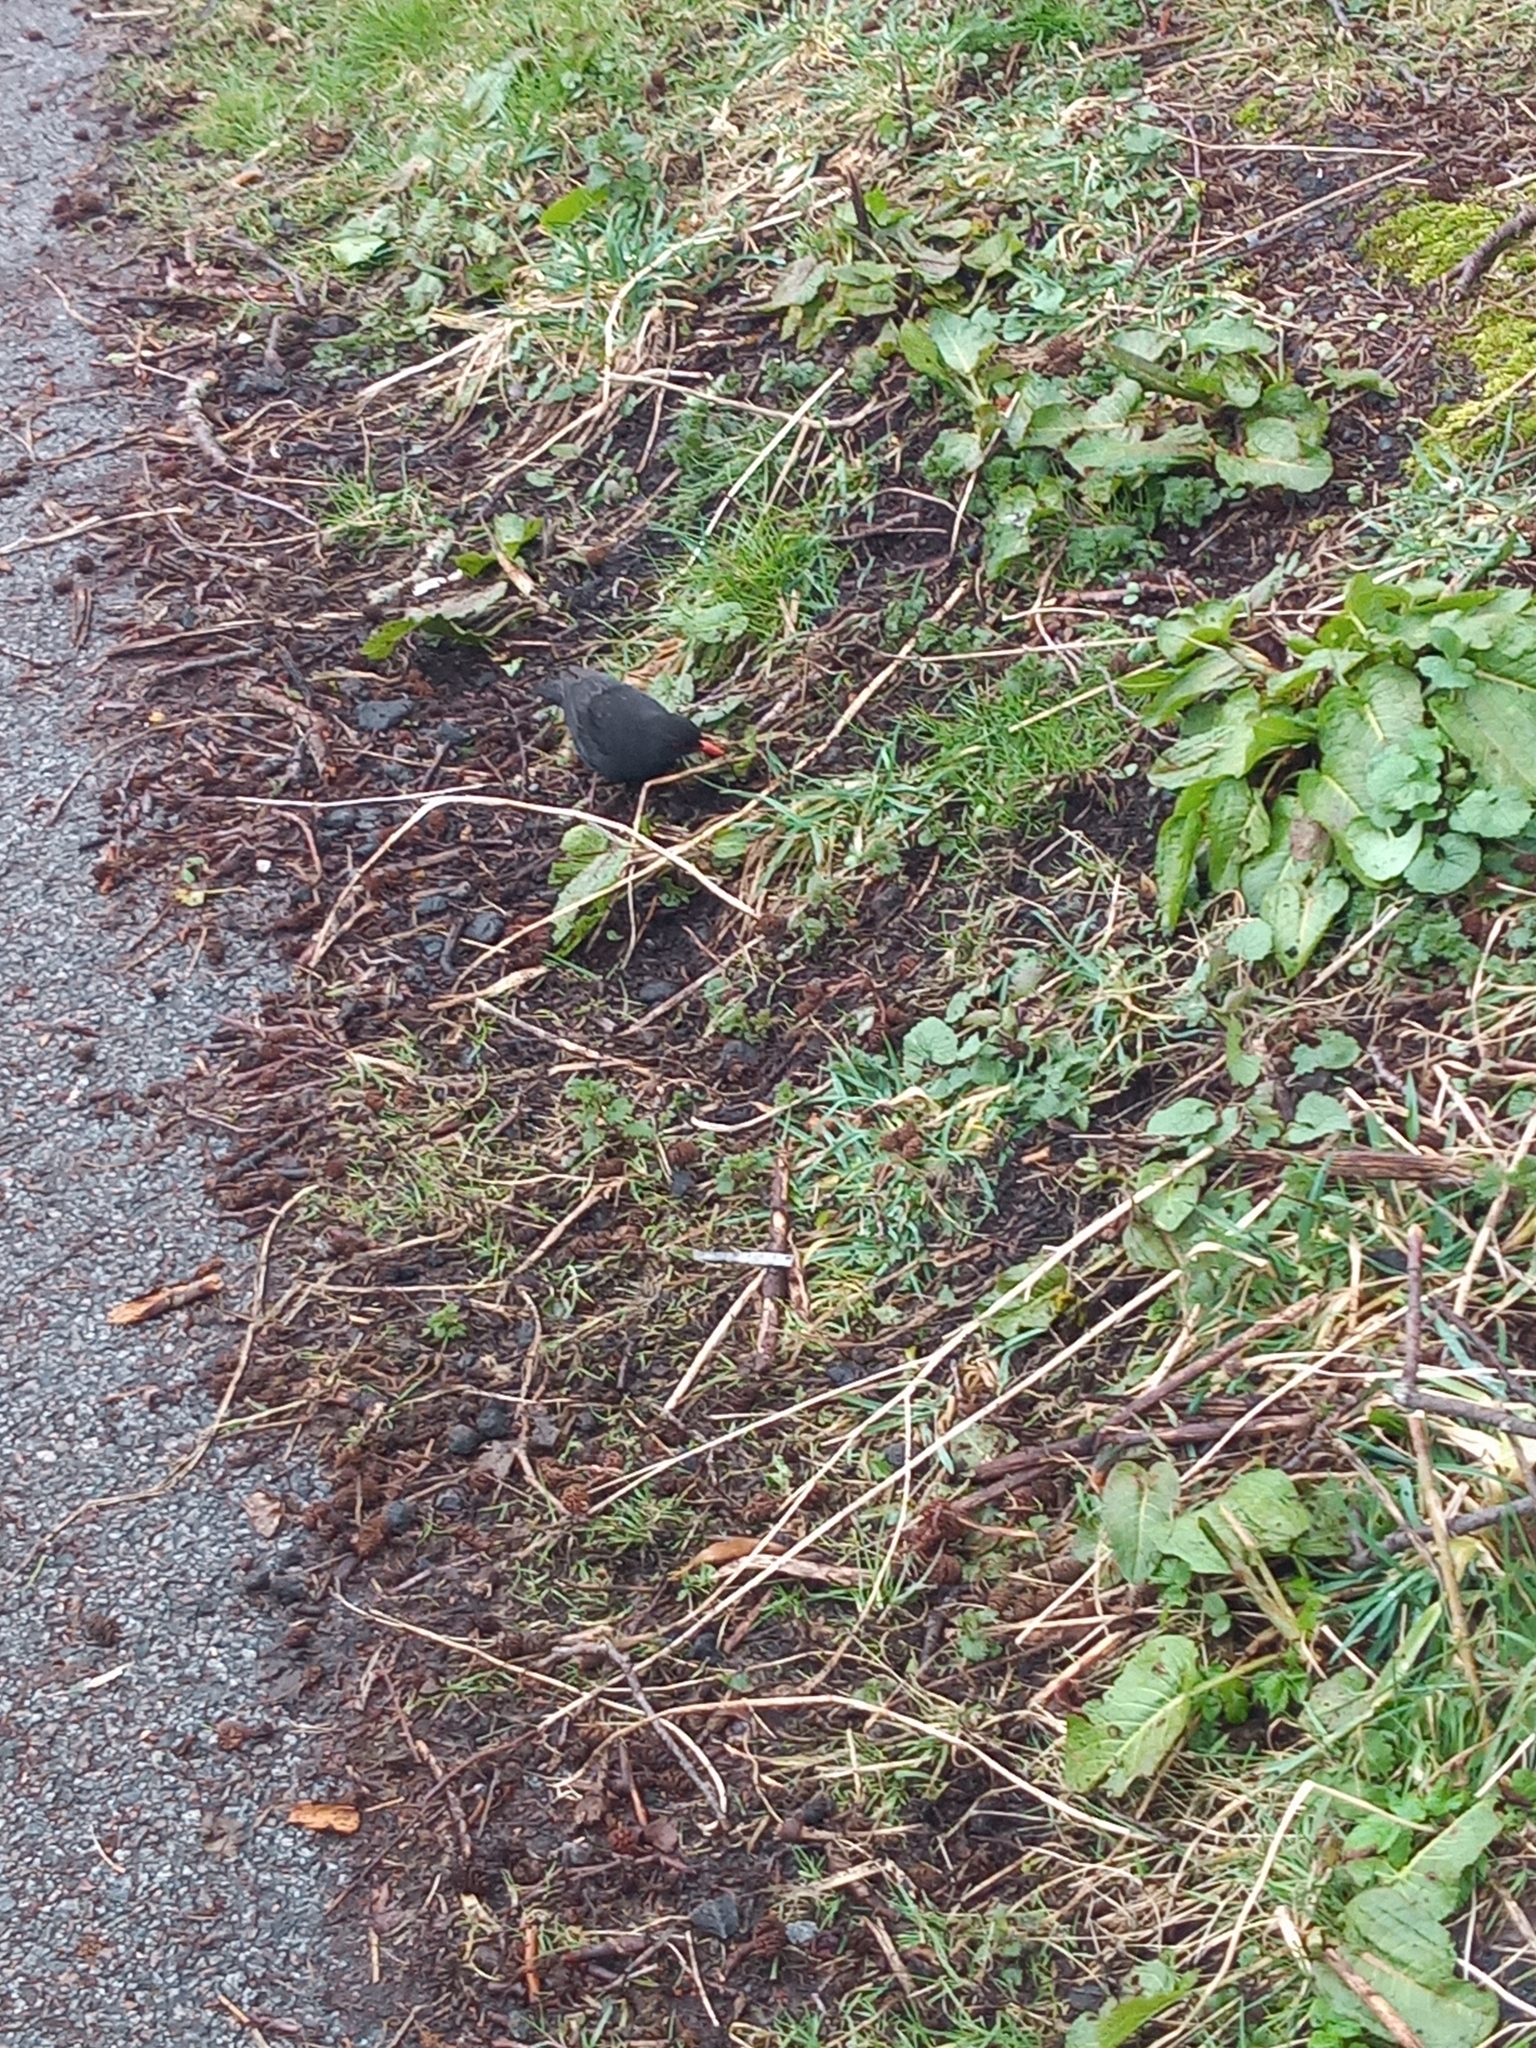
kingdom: Animalia
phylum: Chordata
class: Aves
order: Passeriformes
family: Turdidae
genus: Turdus
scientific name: Turdus merula
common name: Common blackbird
